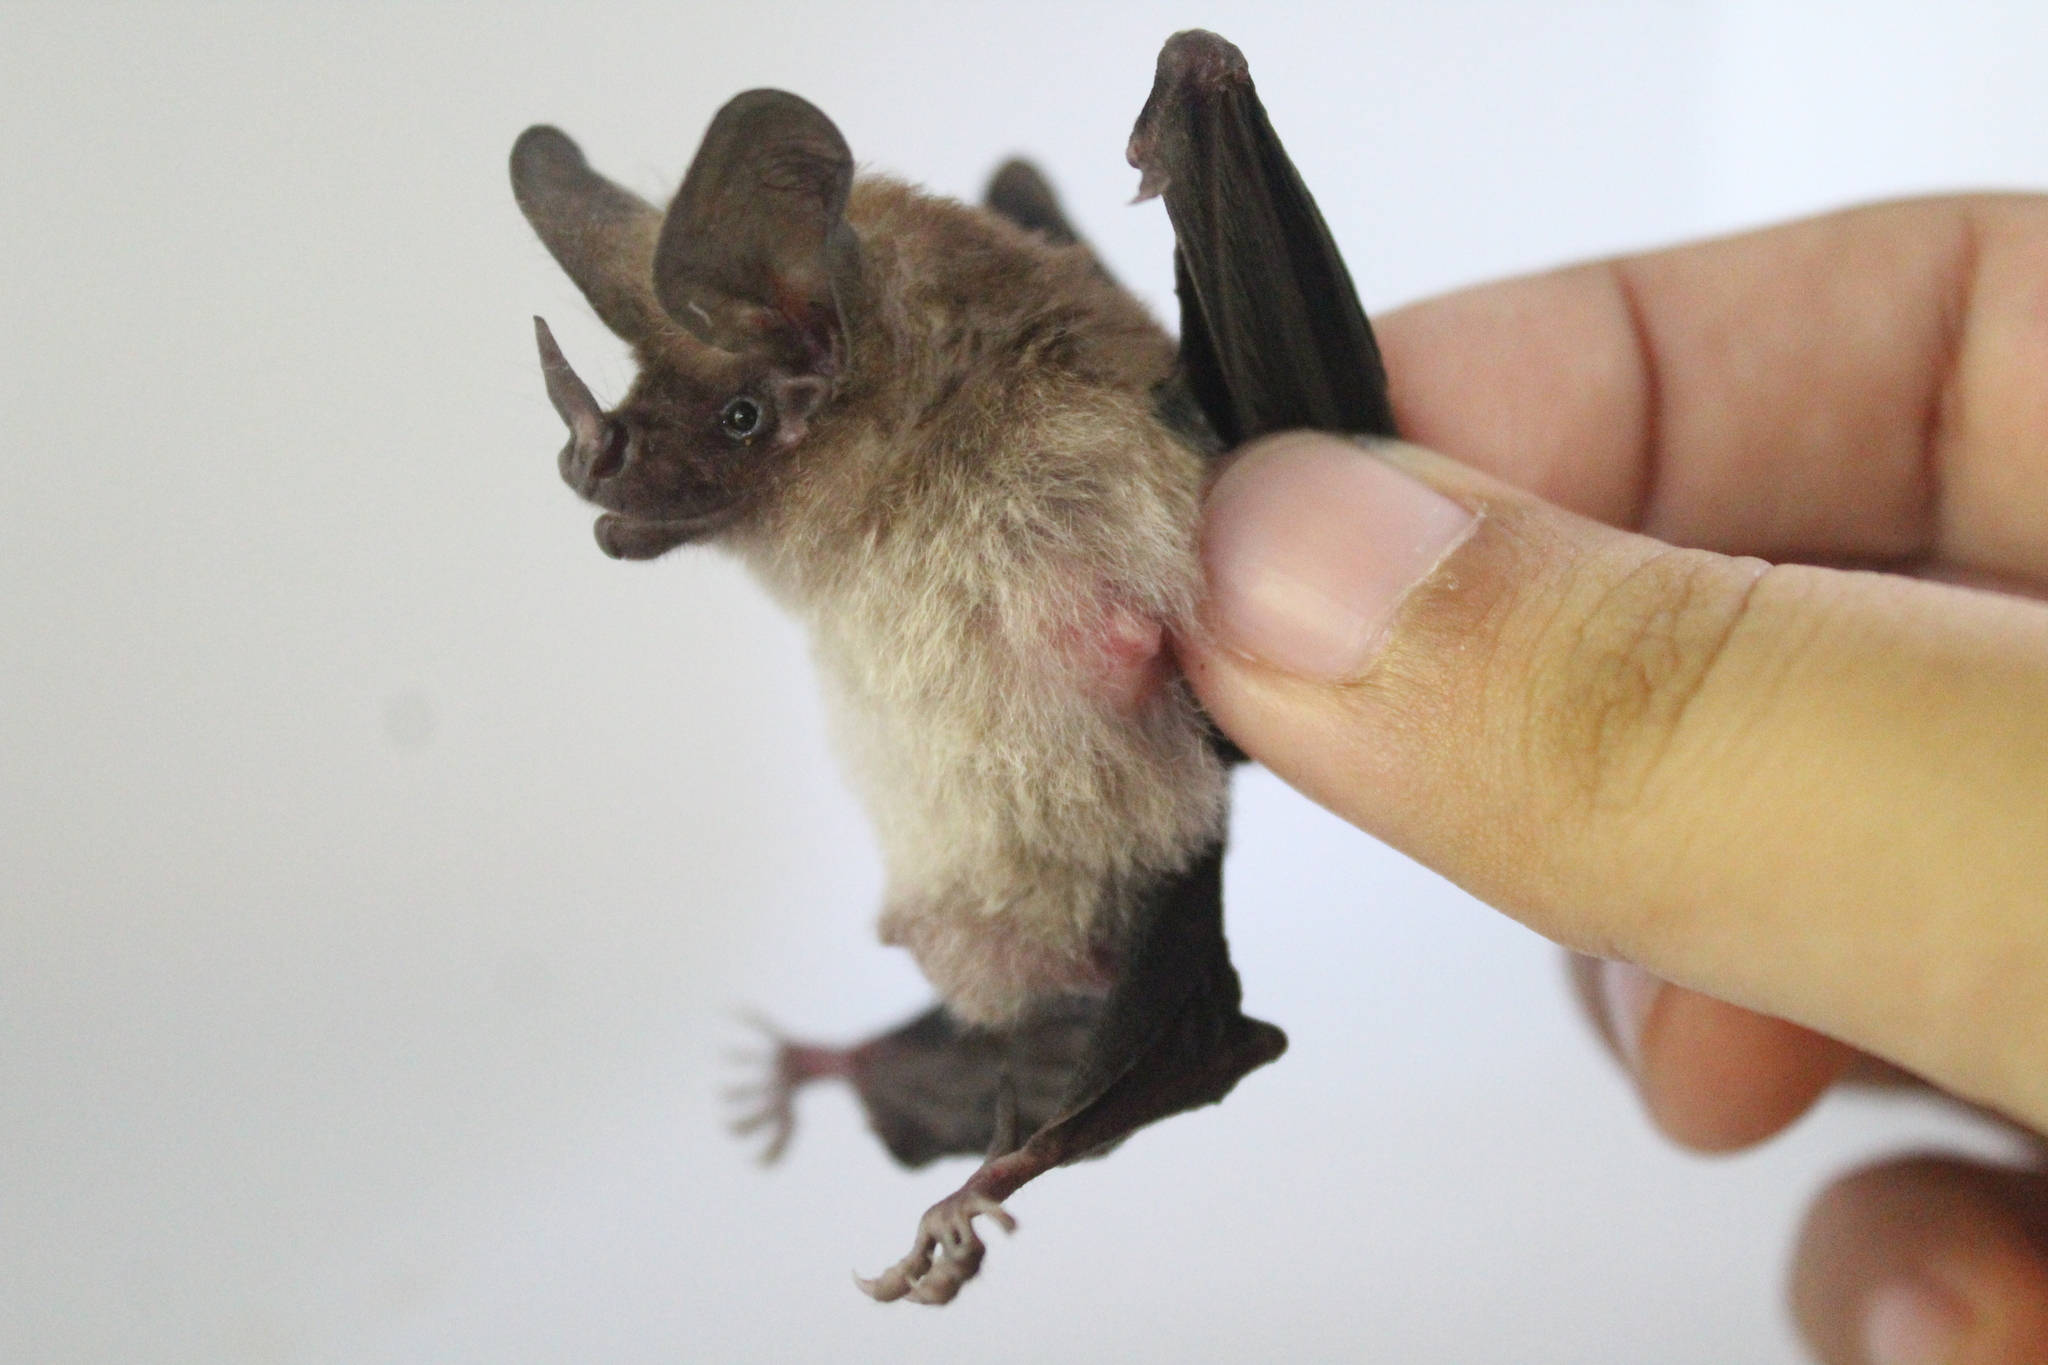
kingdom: Animalia
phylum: Chordata
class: Mammalia
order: Chiroptera
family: Phyllostomidae
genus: Micronycteris
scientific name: Micronycteris schmidtorum
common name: Schmidt's big-eared bat
